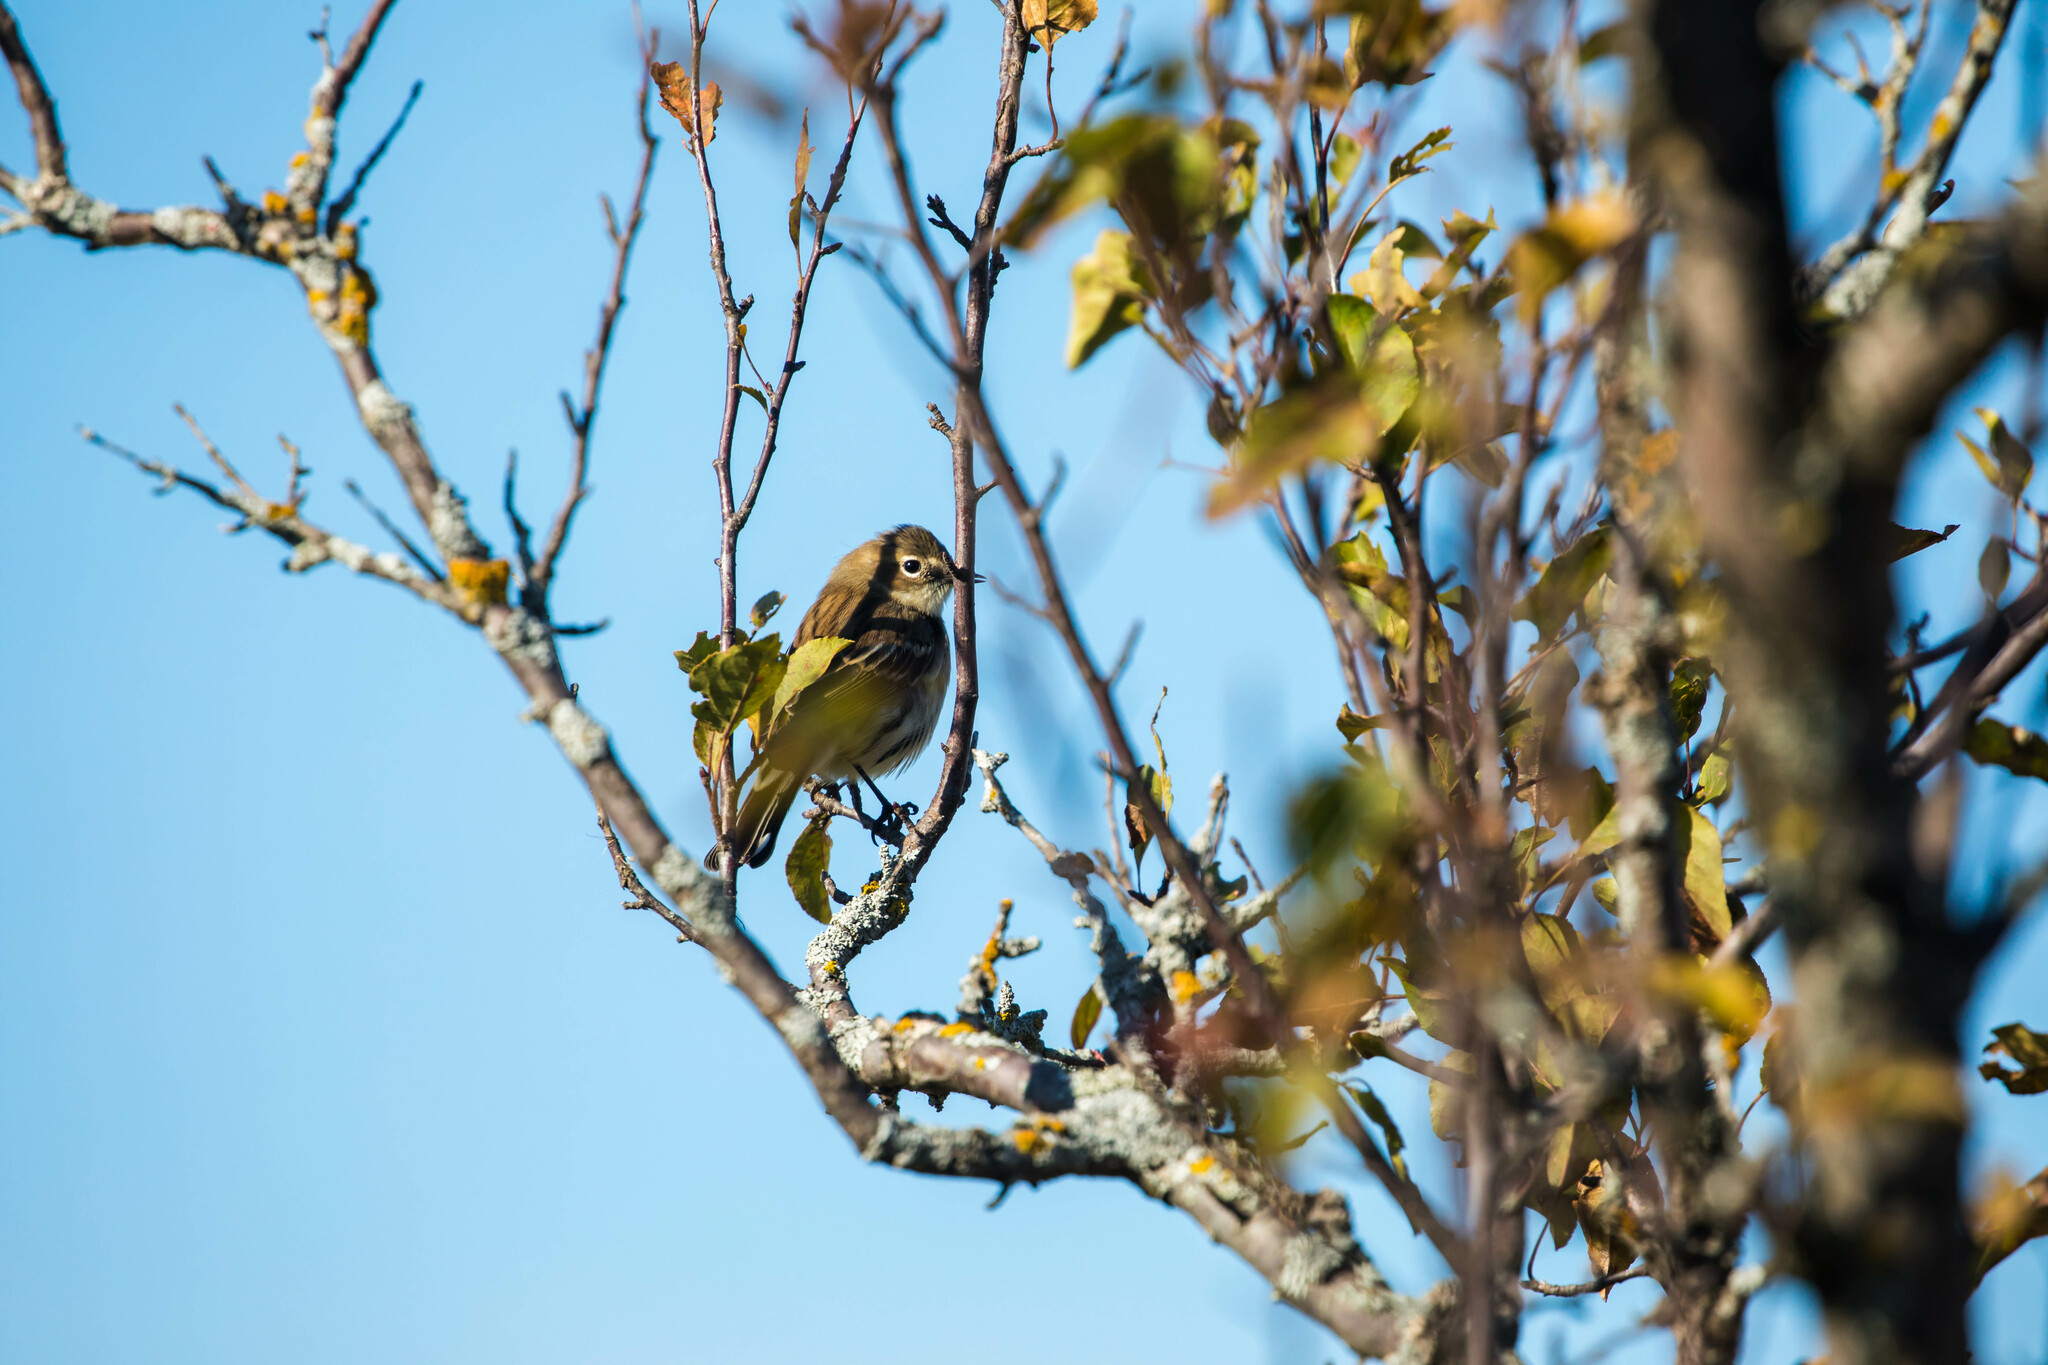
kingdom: Animalia
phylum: Chordata
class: Aves
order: Passeriformes
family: Parulidae
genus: Setophaga
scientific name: Setophaga coronata
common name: Myrtle warbler
